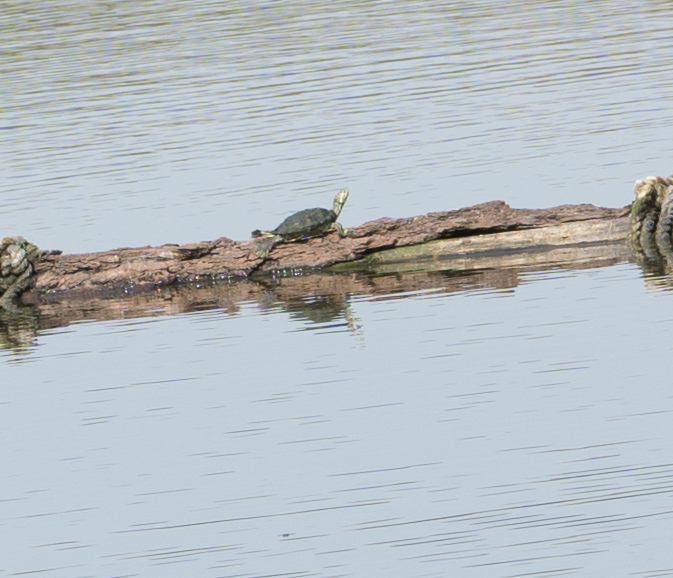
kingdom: Animalia
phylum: Chordata
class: Testudines
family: Emydidae
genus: Trachemys
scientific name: Trachemys scripta
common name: Slider
